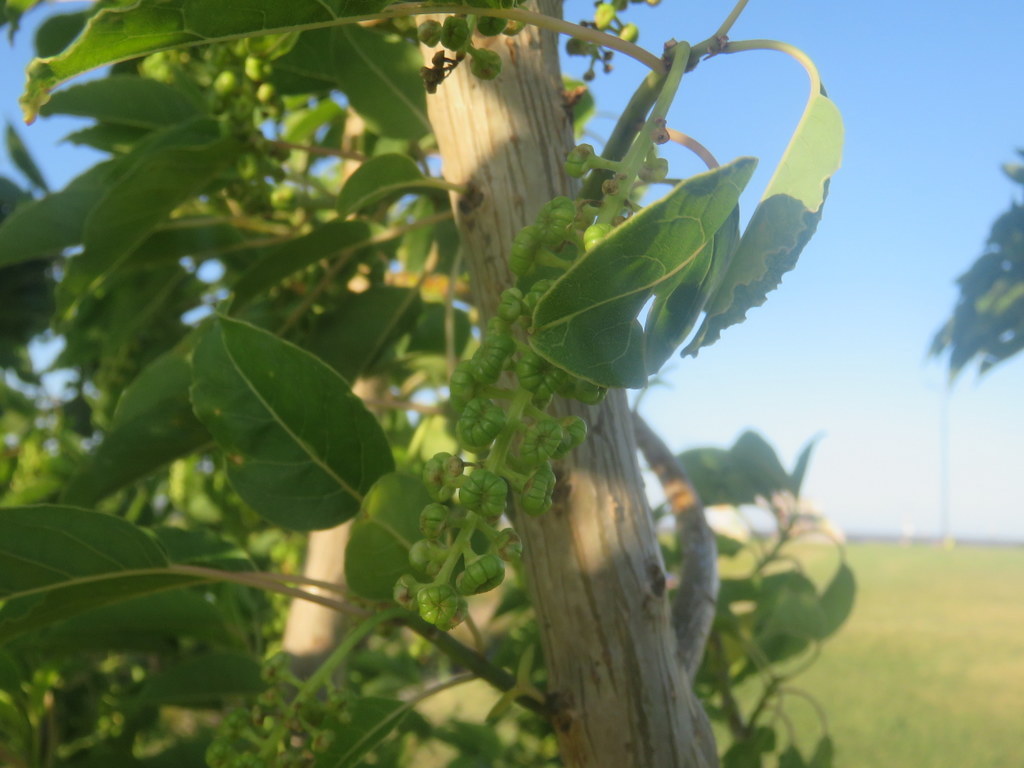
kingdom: Plantae
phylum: Tracheophyta
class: Magnoliopsida
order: Caryophyllales
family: Phytolaccaceae
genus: Phytolacca
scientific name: Phytolacca dioica
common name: Pokeweed
